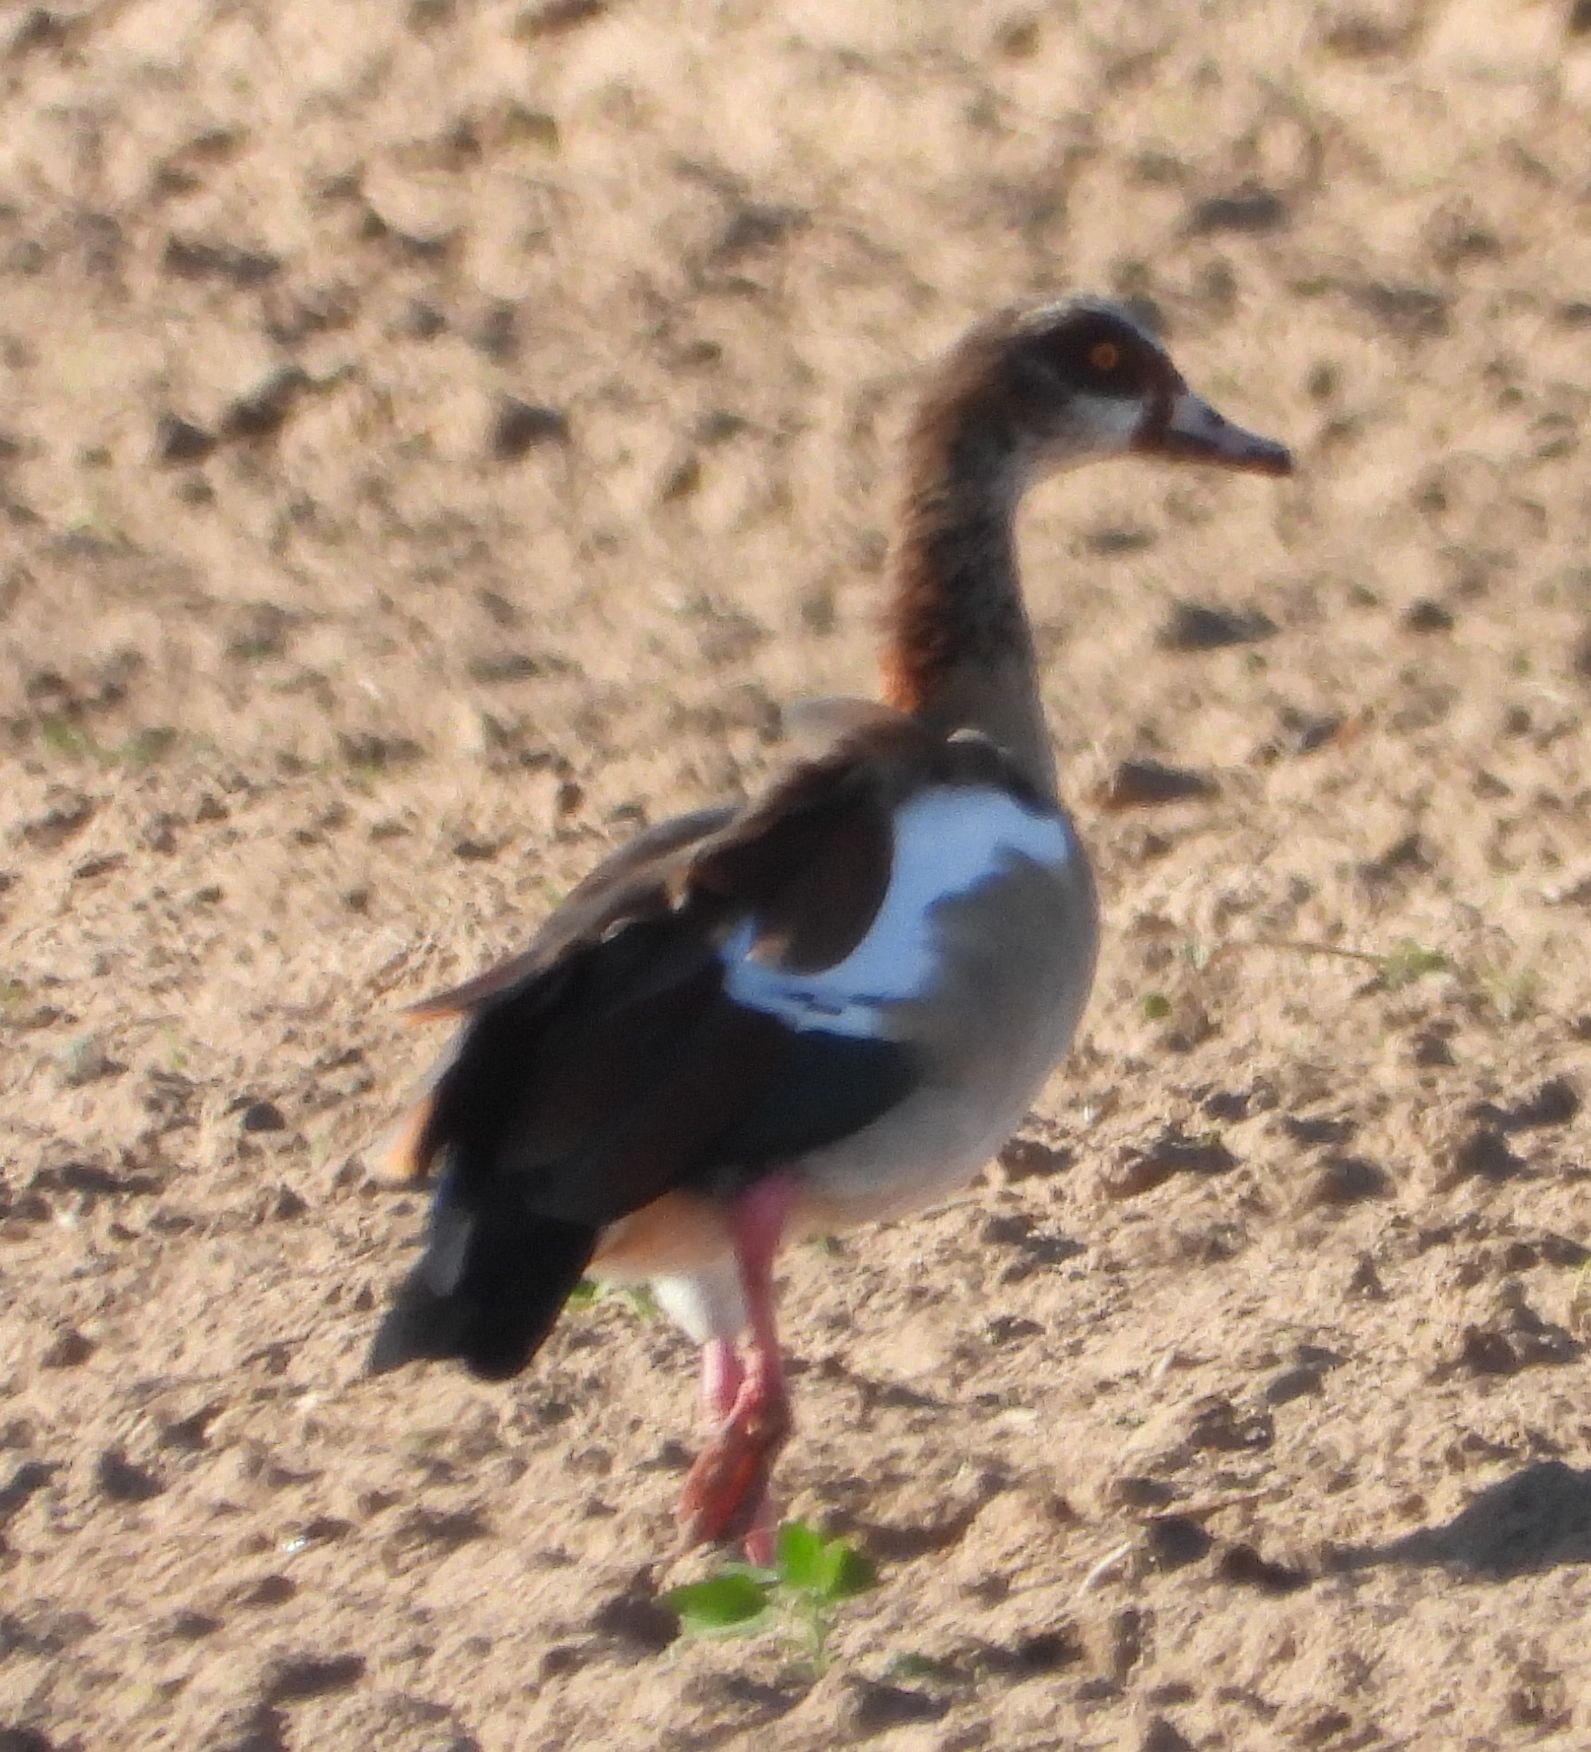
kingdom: Animalia
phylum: Chordata
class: Aves
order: Anseriformes
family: Anatidae
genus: Alopochen
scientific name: Alopochen aegyptiaca
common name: Egyptian goose
